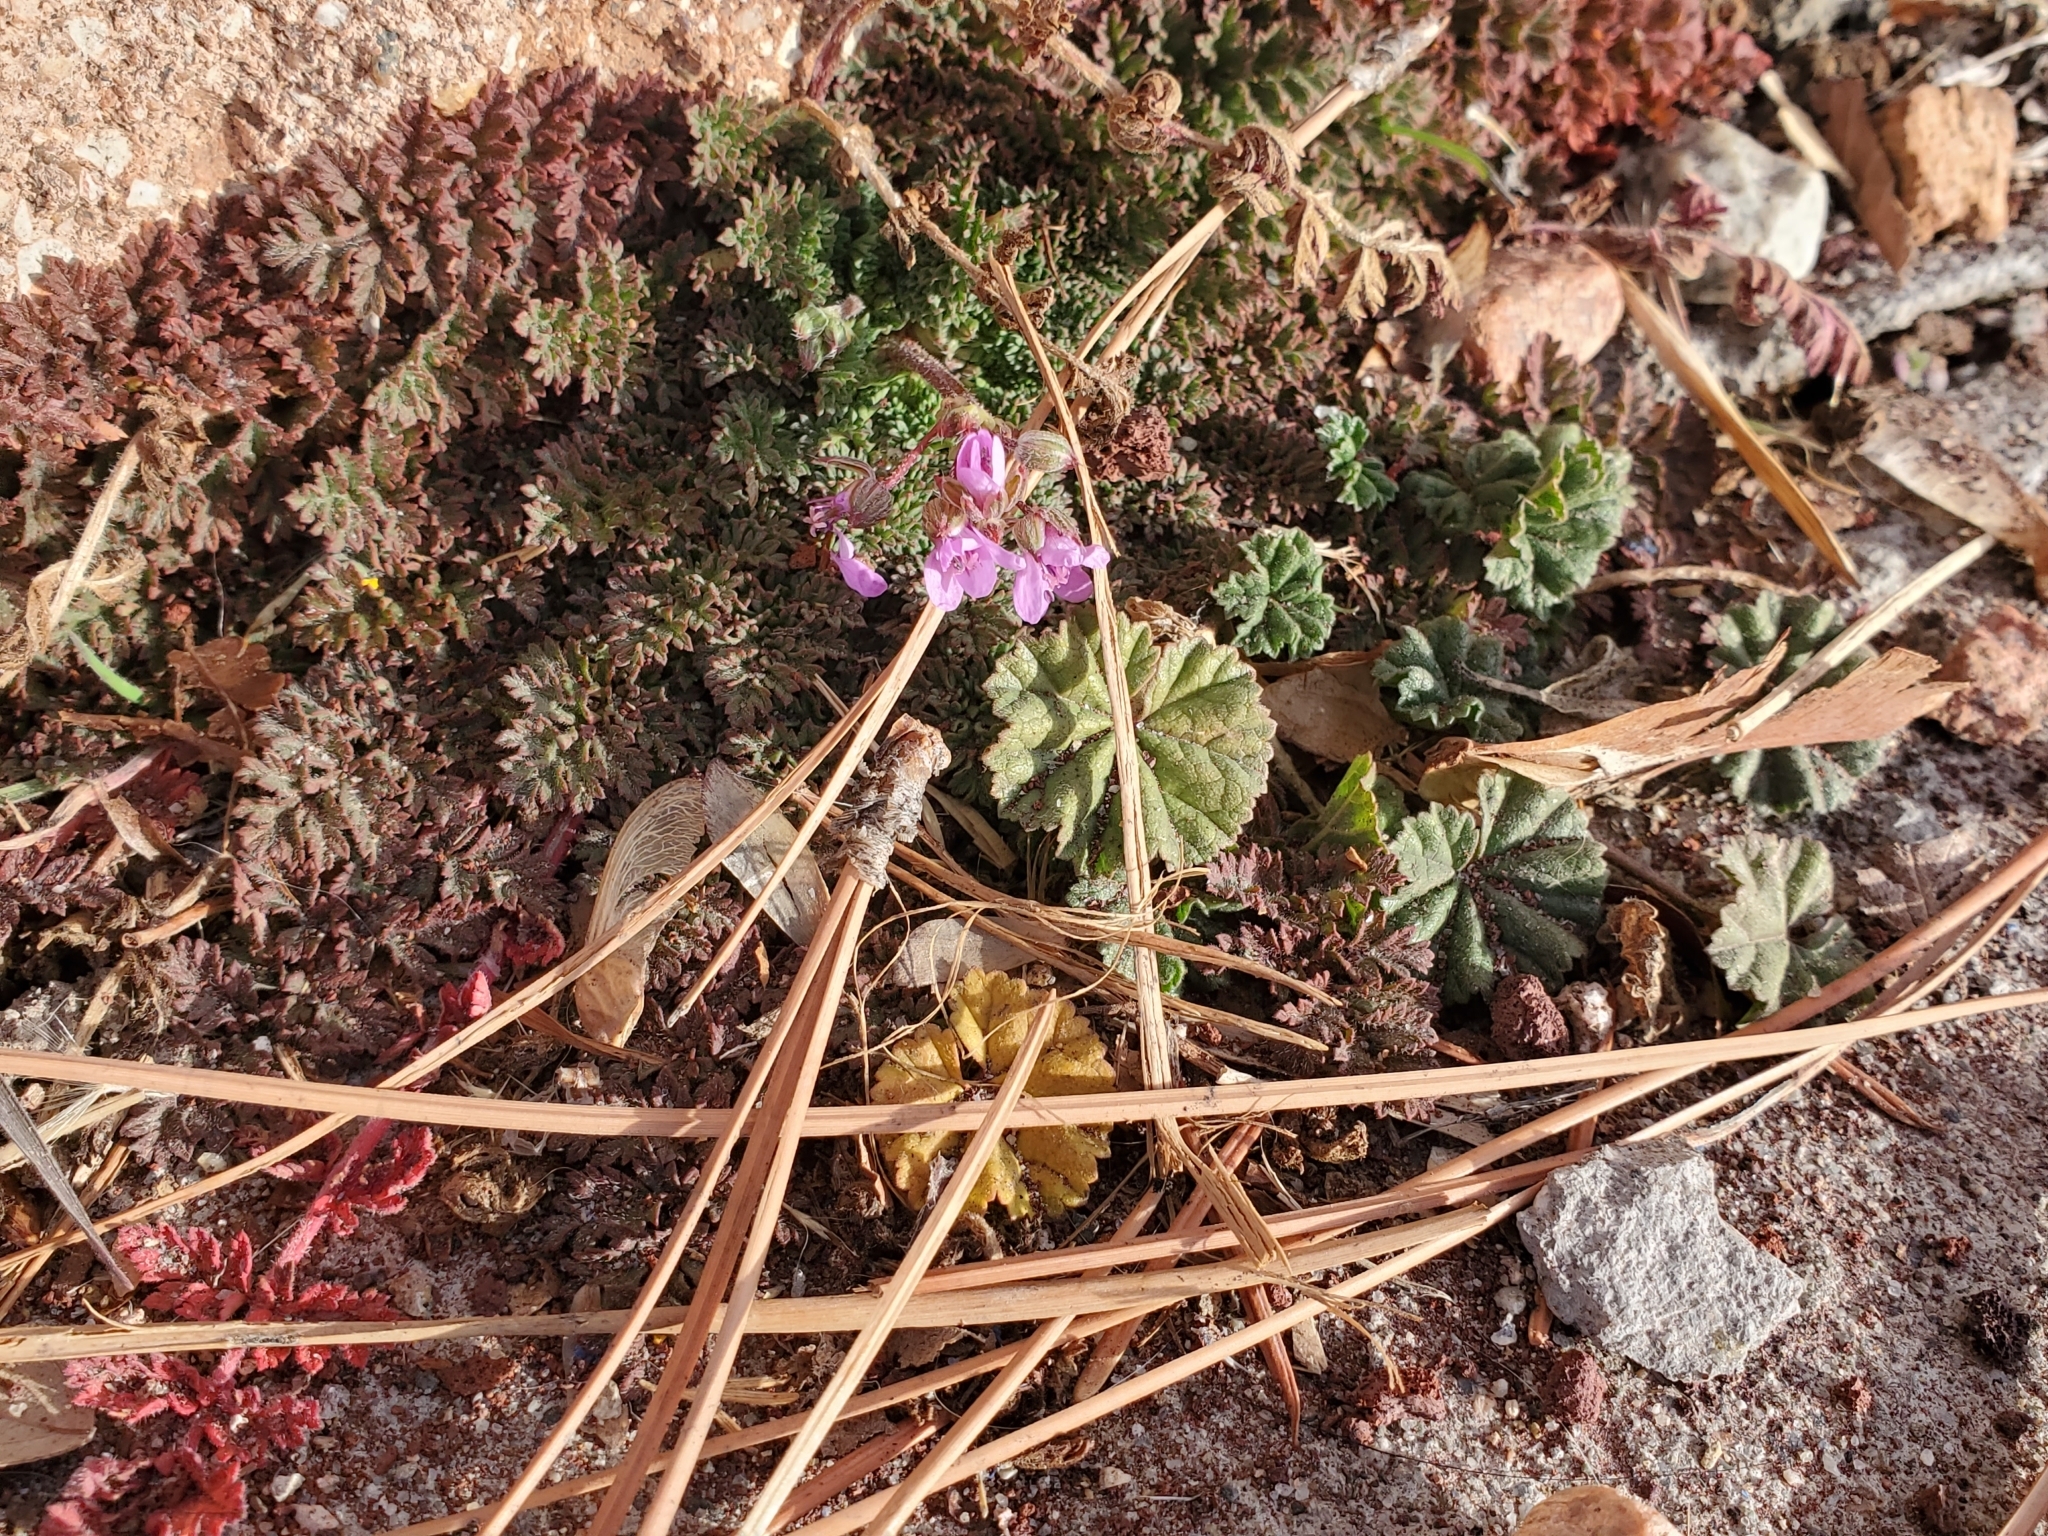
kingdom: Plantae
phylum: Tracheophyta
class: Magnoliopsida
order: Geraniales
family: Geraniaceae
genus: Erodium
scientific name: Erodium cicutarium
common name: Common stork's-bill
